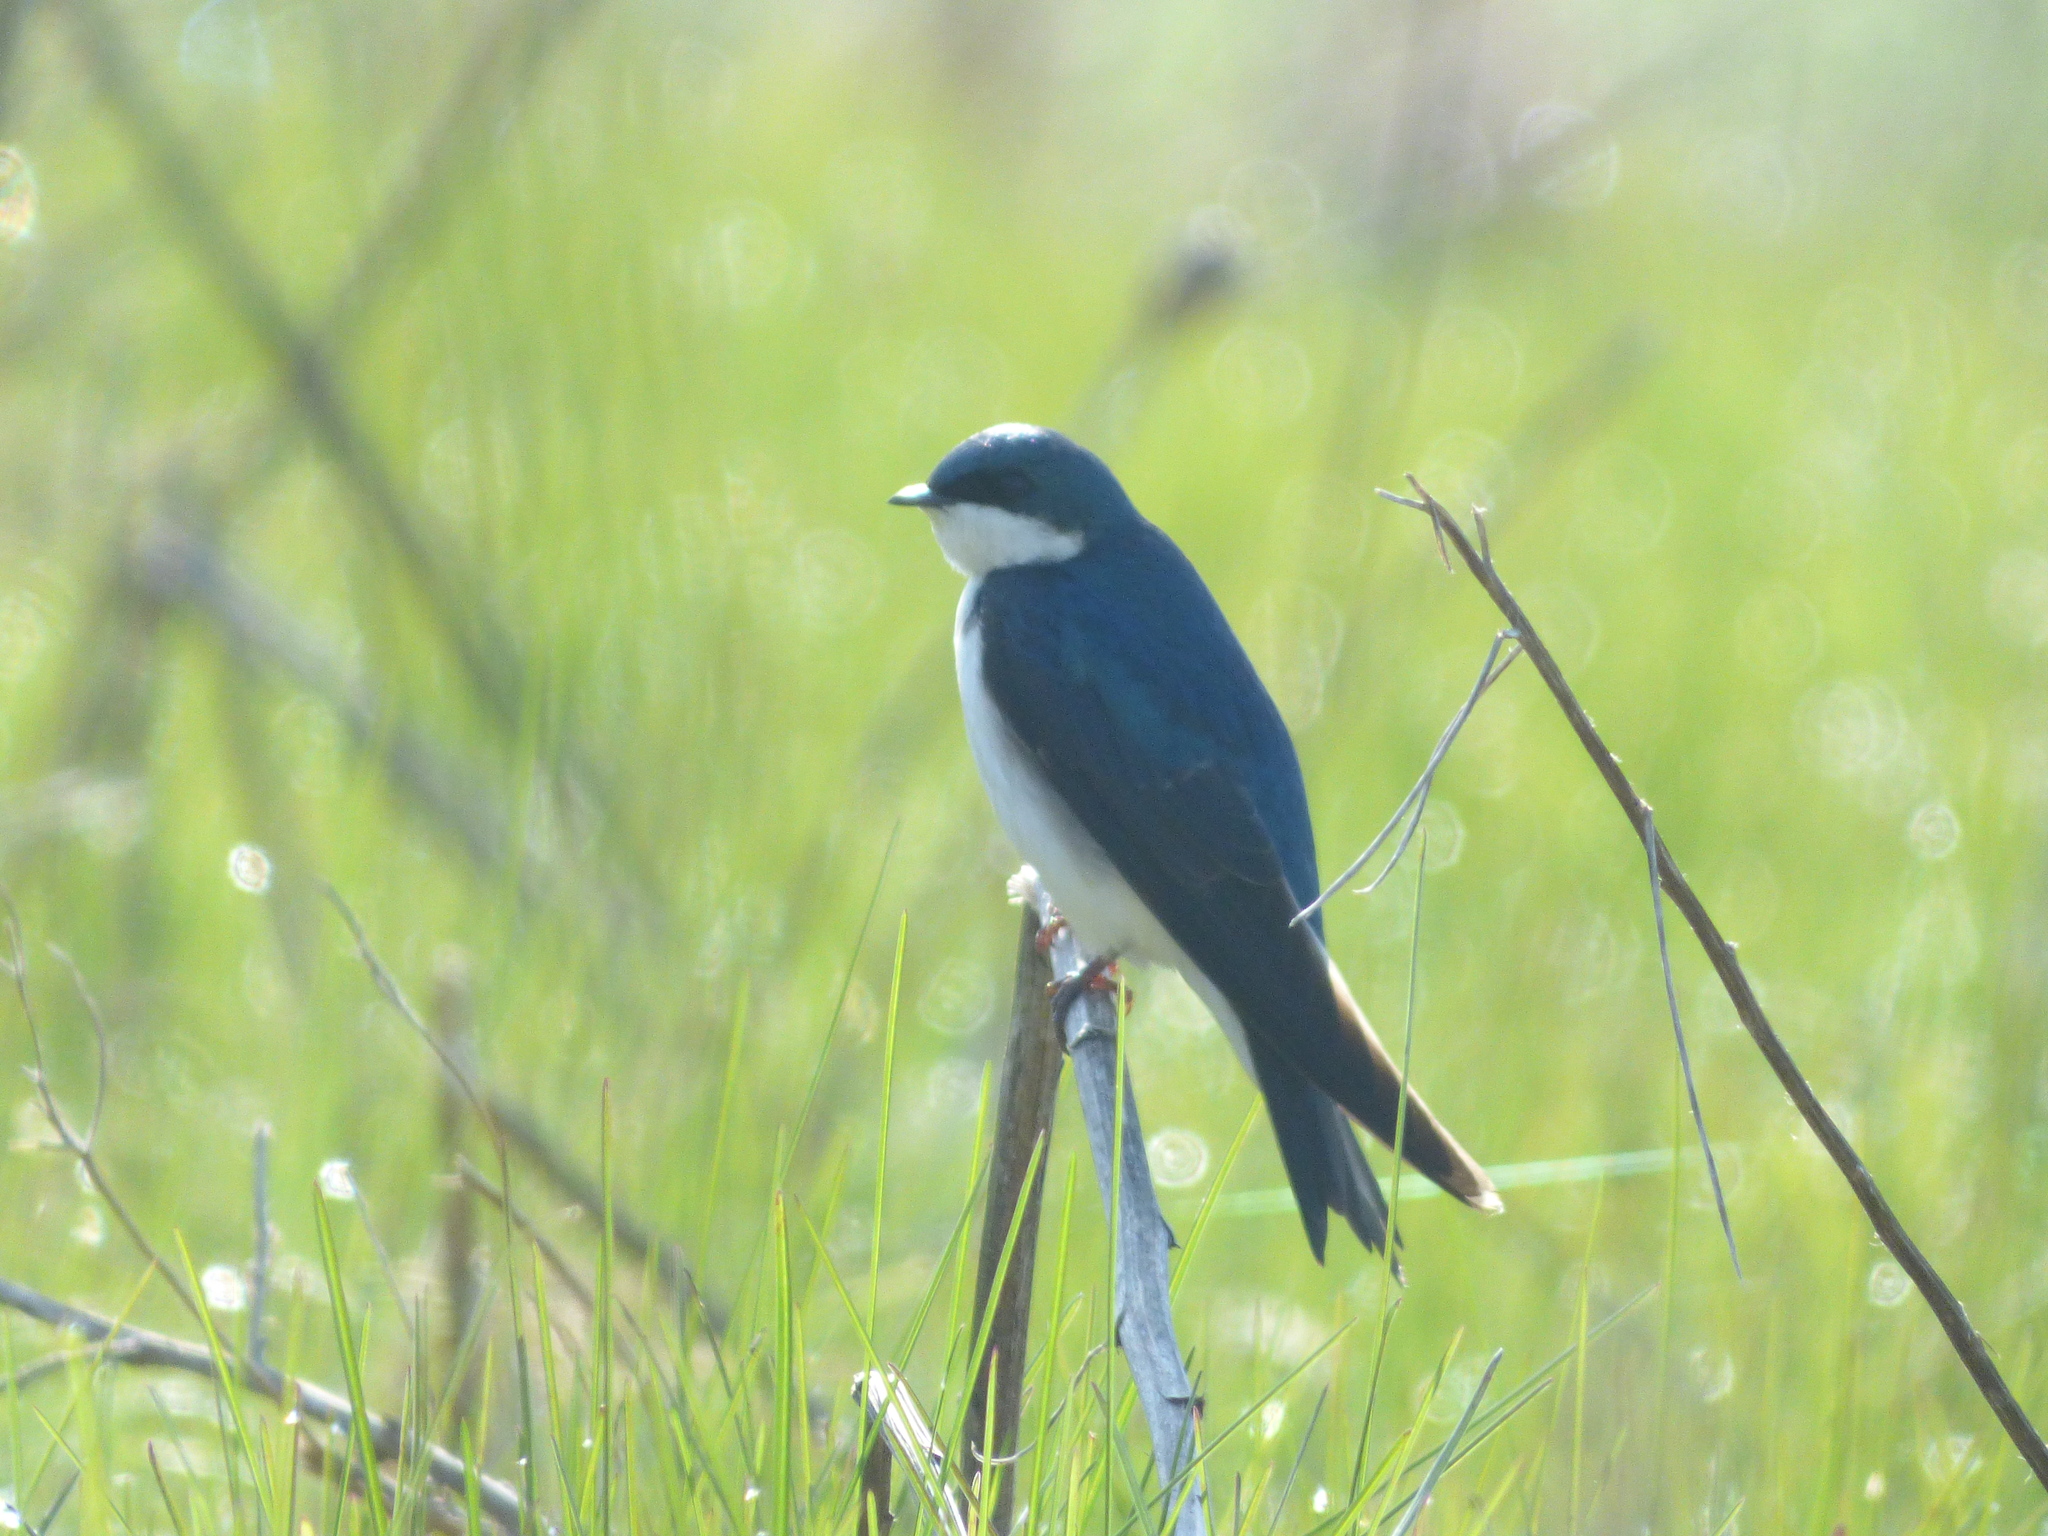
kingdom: Animalia
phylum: Chordata
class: Aves
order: Passeriformes
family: Hirundinidae
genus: Tachycineta
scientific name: Tachycineta bicolor
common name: Tree swallow
